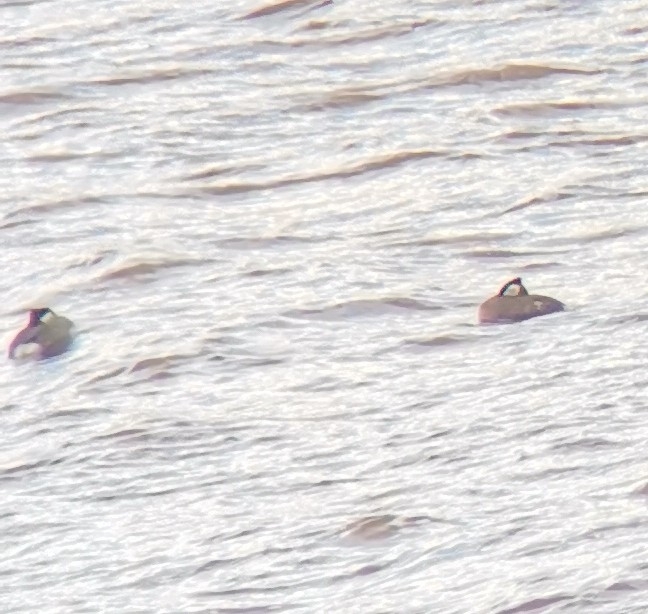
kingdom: Animalia
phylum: Chordata
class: Aves
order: Podicipediformes
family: Podicipedidae
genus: Podiceps
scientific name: Podiceps grisegena
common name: Red-necked grebe
